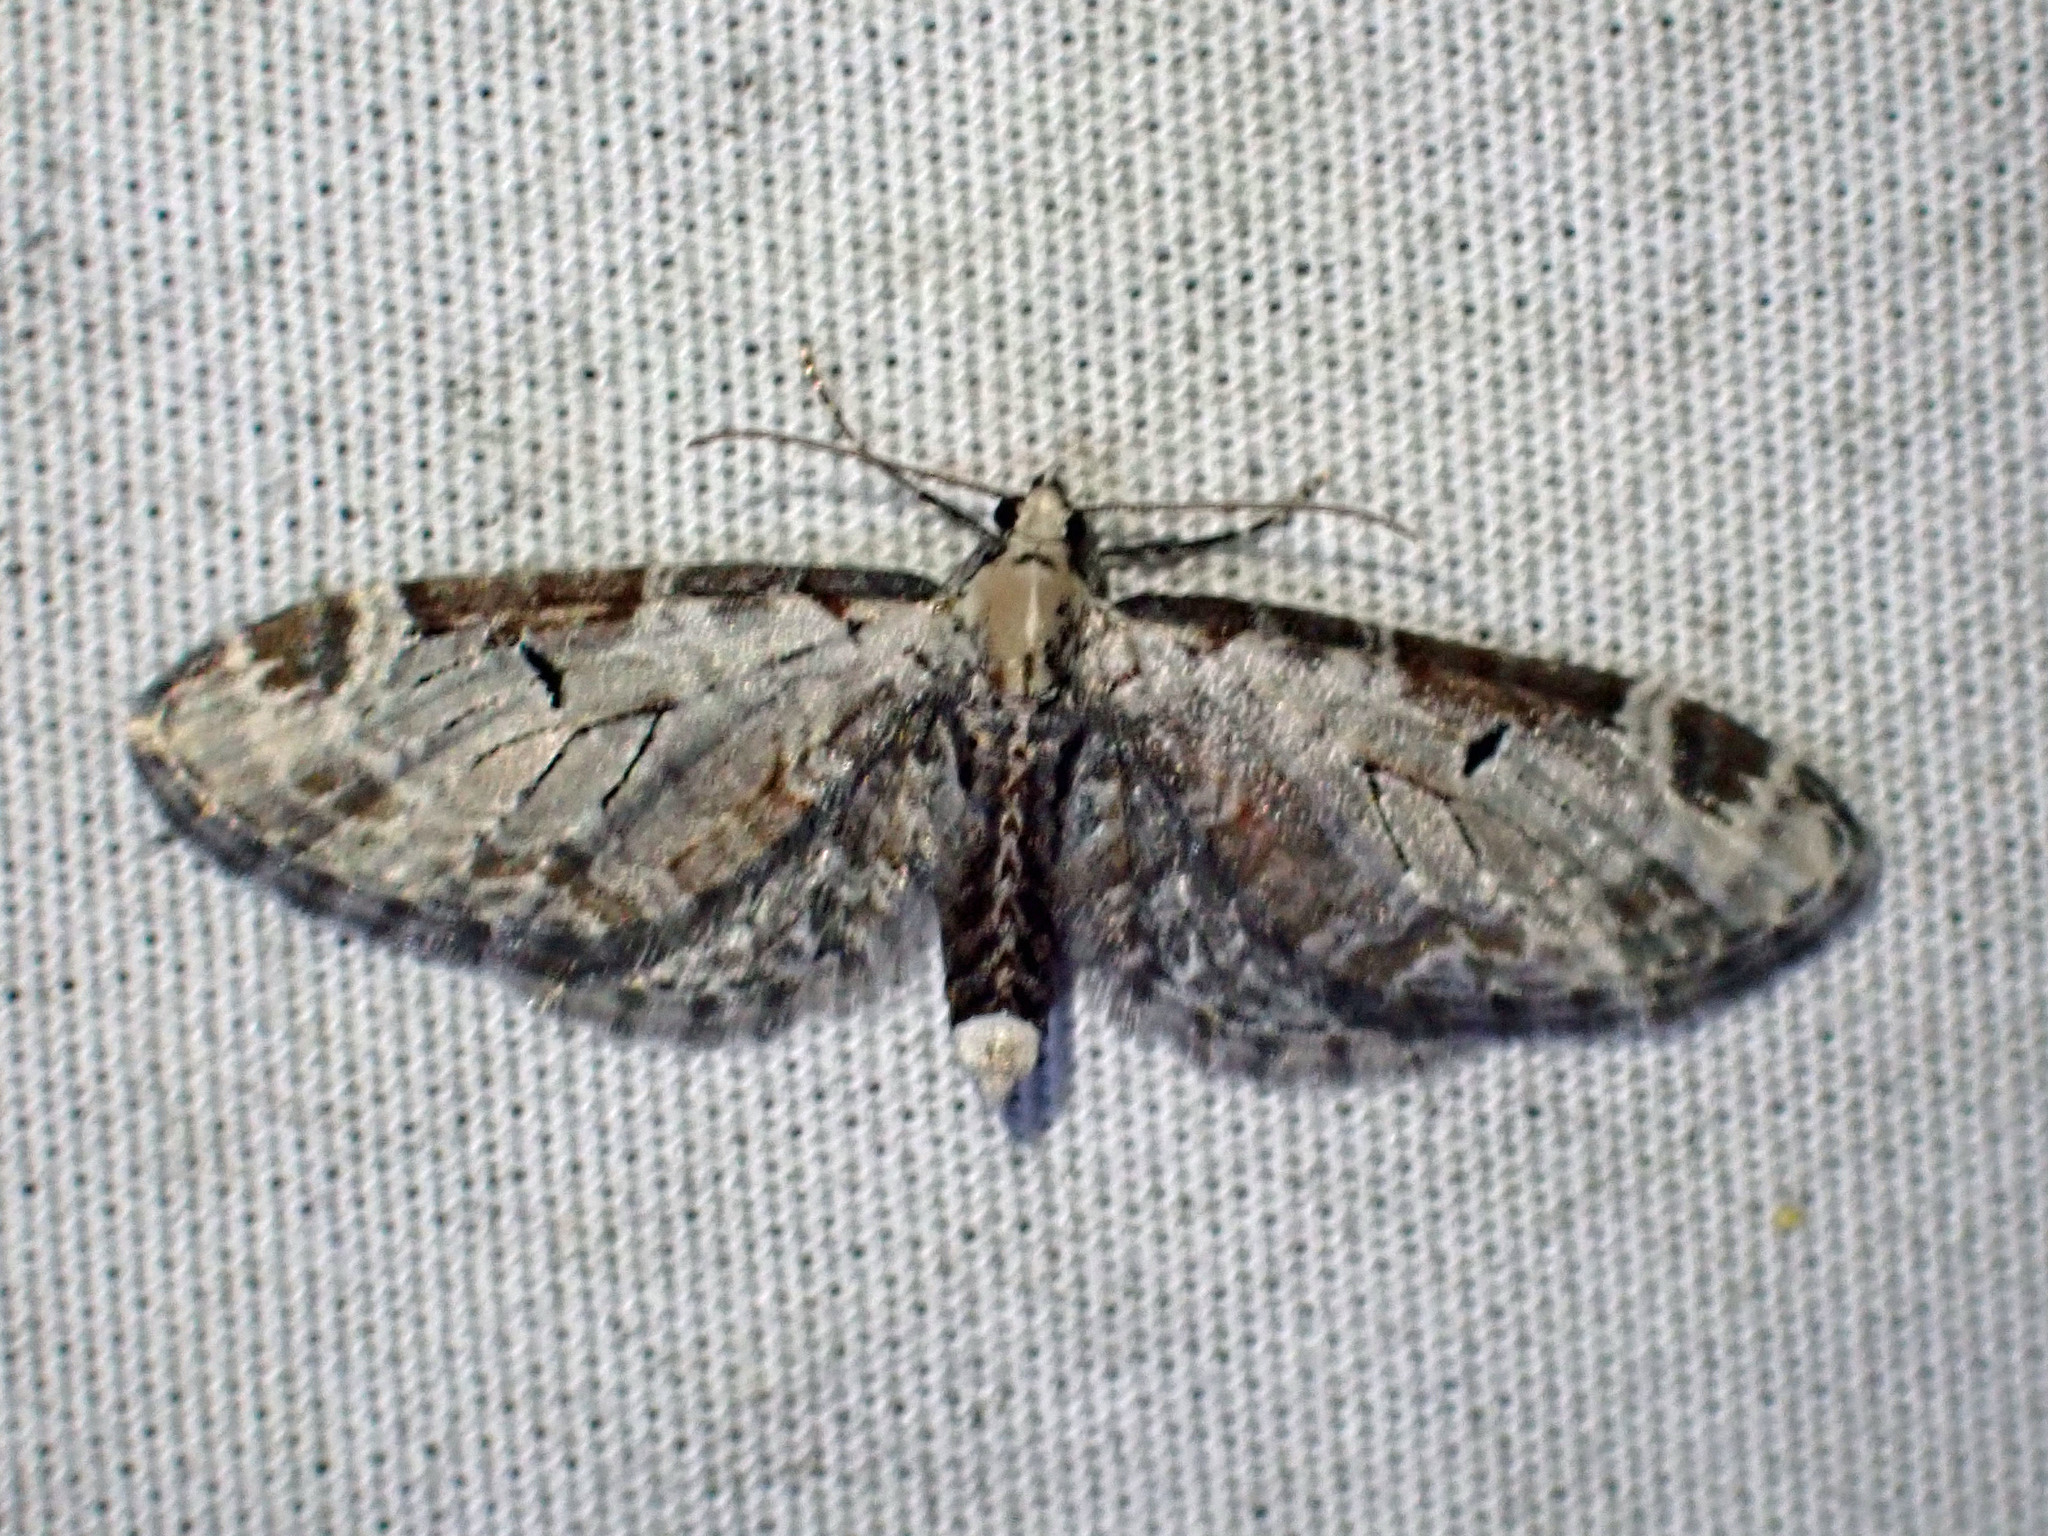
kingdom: Animalia
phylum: Arthropoda
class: Insecta
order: Lepidoptera
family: Geometridae
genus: Eupithecia
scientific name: Eupithecia ravocostaliata
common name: Great varigated pug
